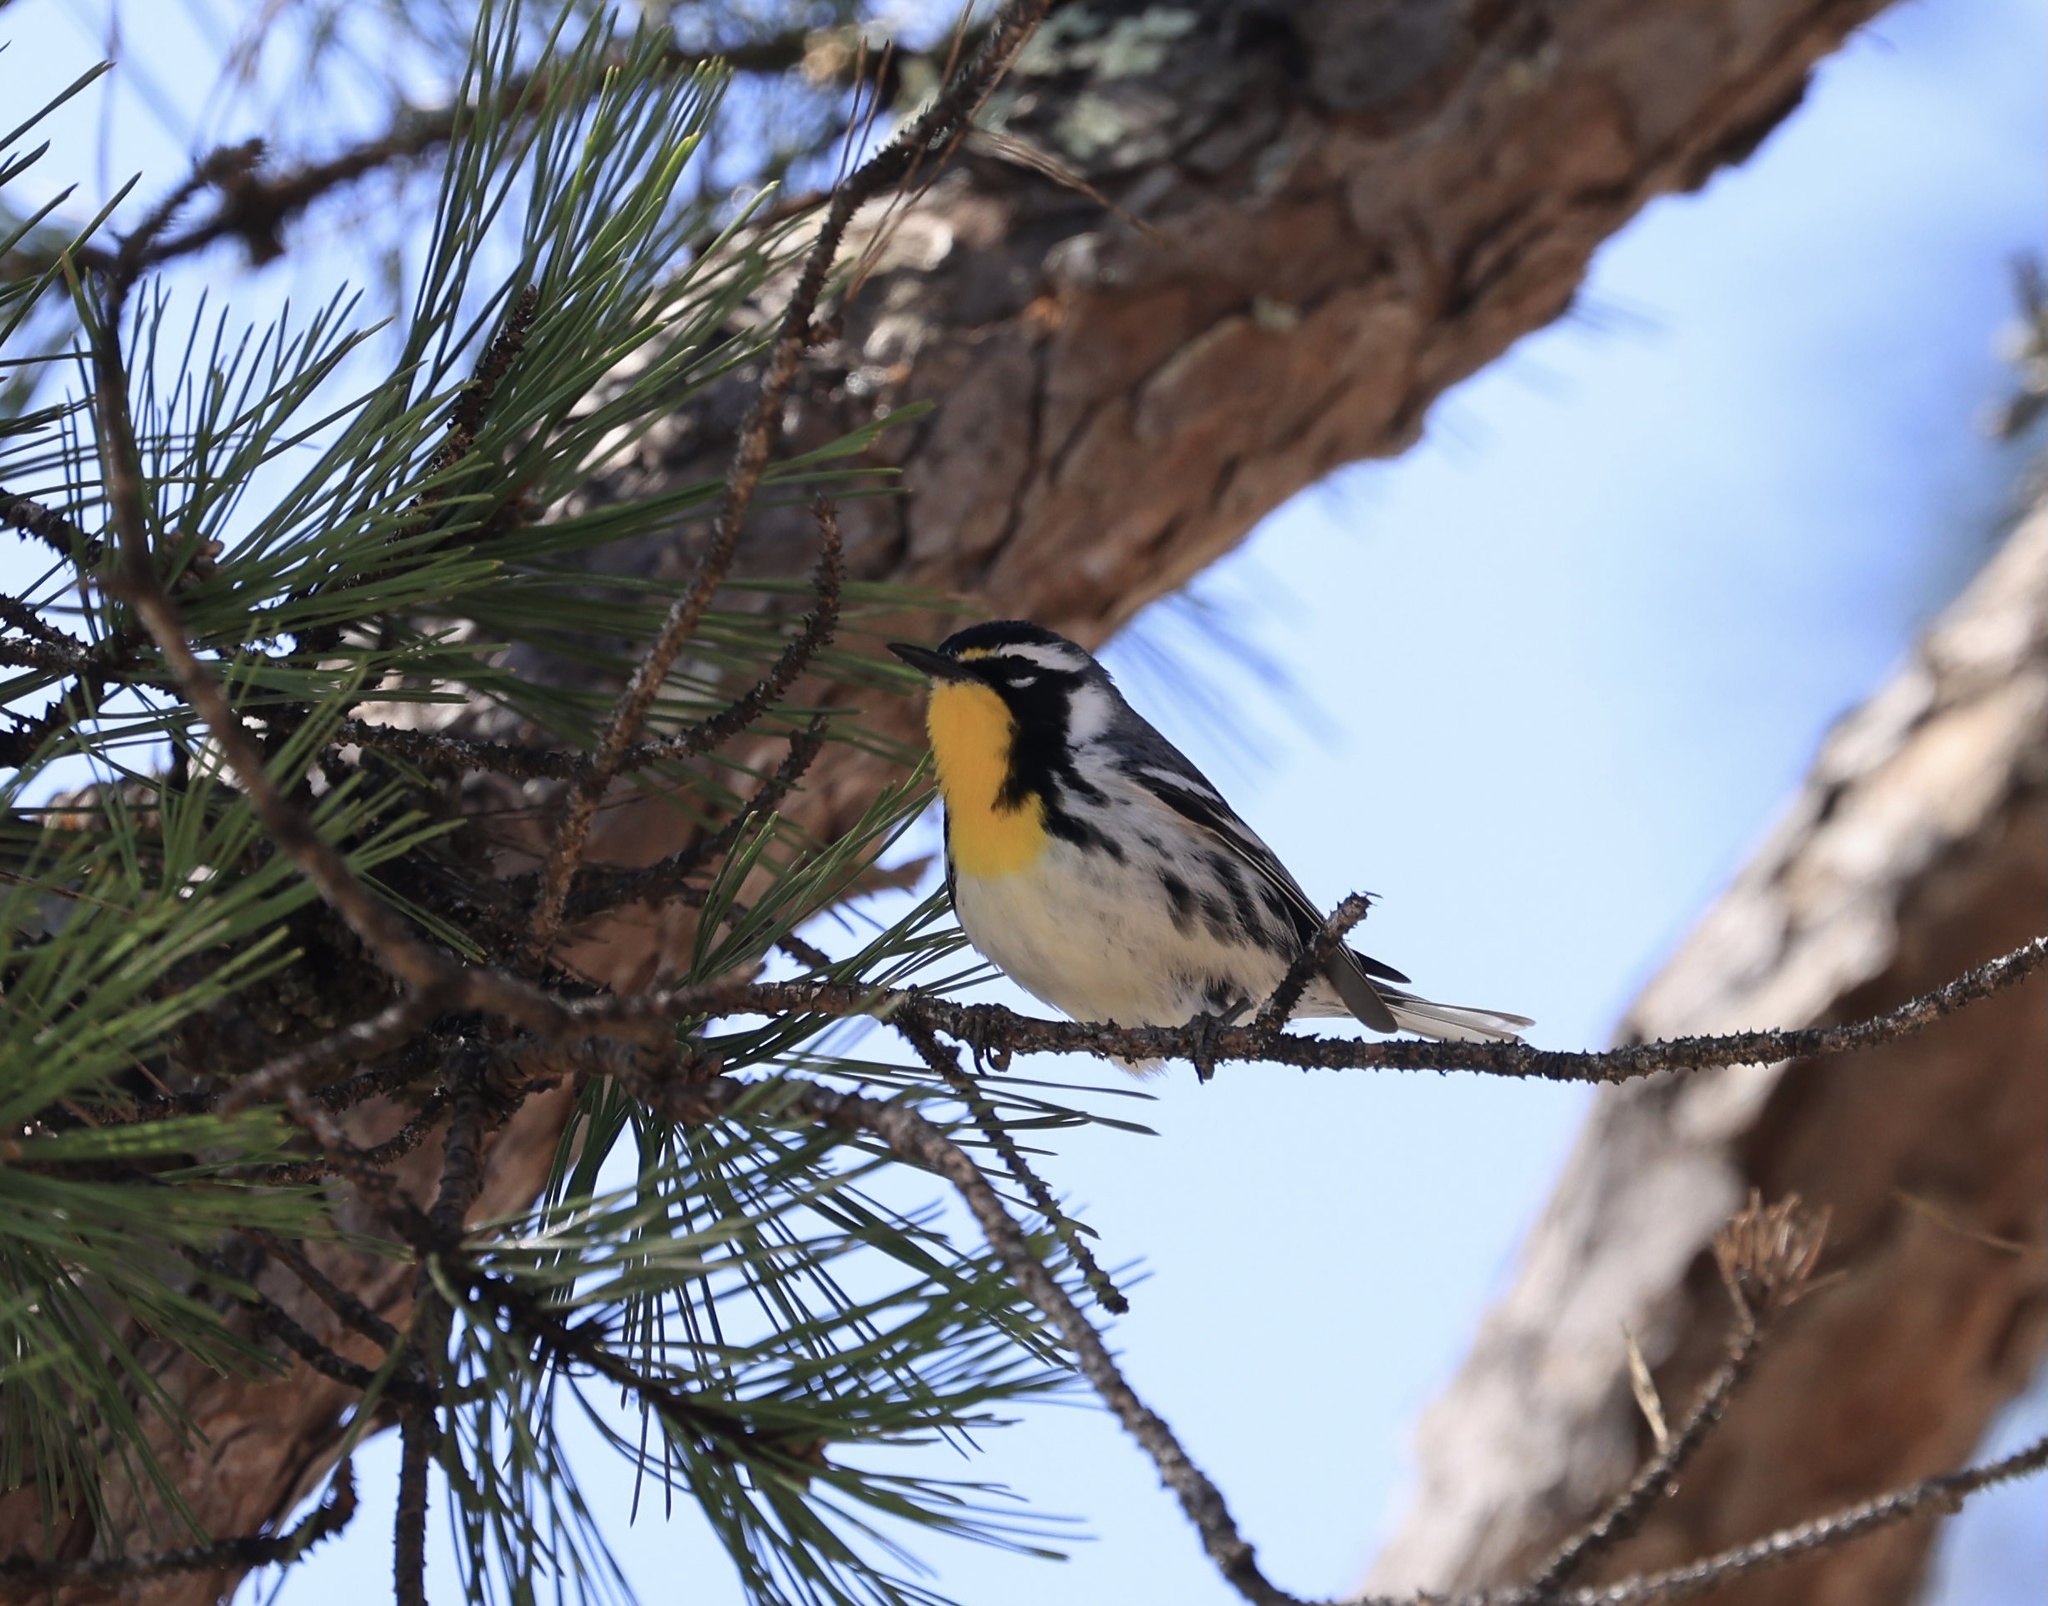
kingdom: Animalia
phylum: Chordata
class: Aves
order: Passeriformes
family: Parulidae
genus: Setophaga
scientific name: Setophaga dominica
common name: Yellow-throated warbler
